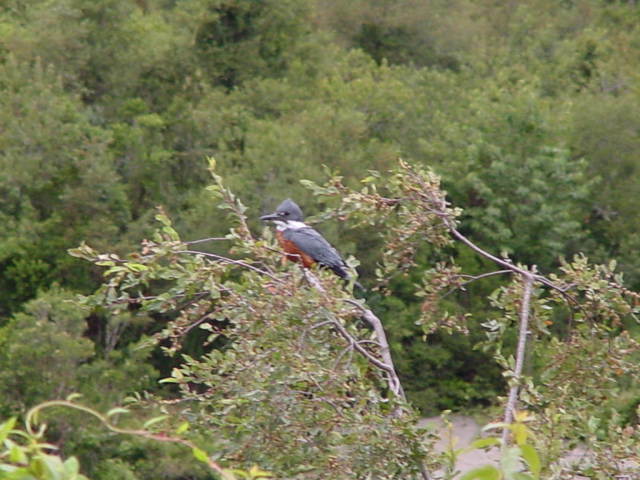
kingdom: Animalia
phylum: Chordata
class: Aves
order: Coraciiformes
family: Alcedinidae
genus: Megaceryle
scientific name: Megaceryle torquata
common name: Ringed kingfisher
